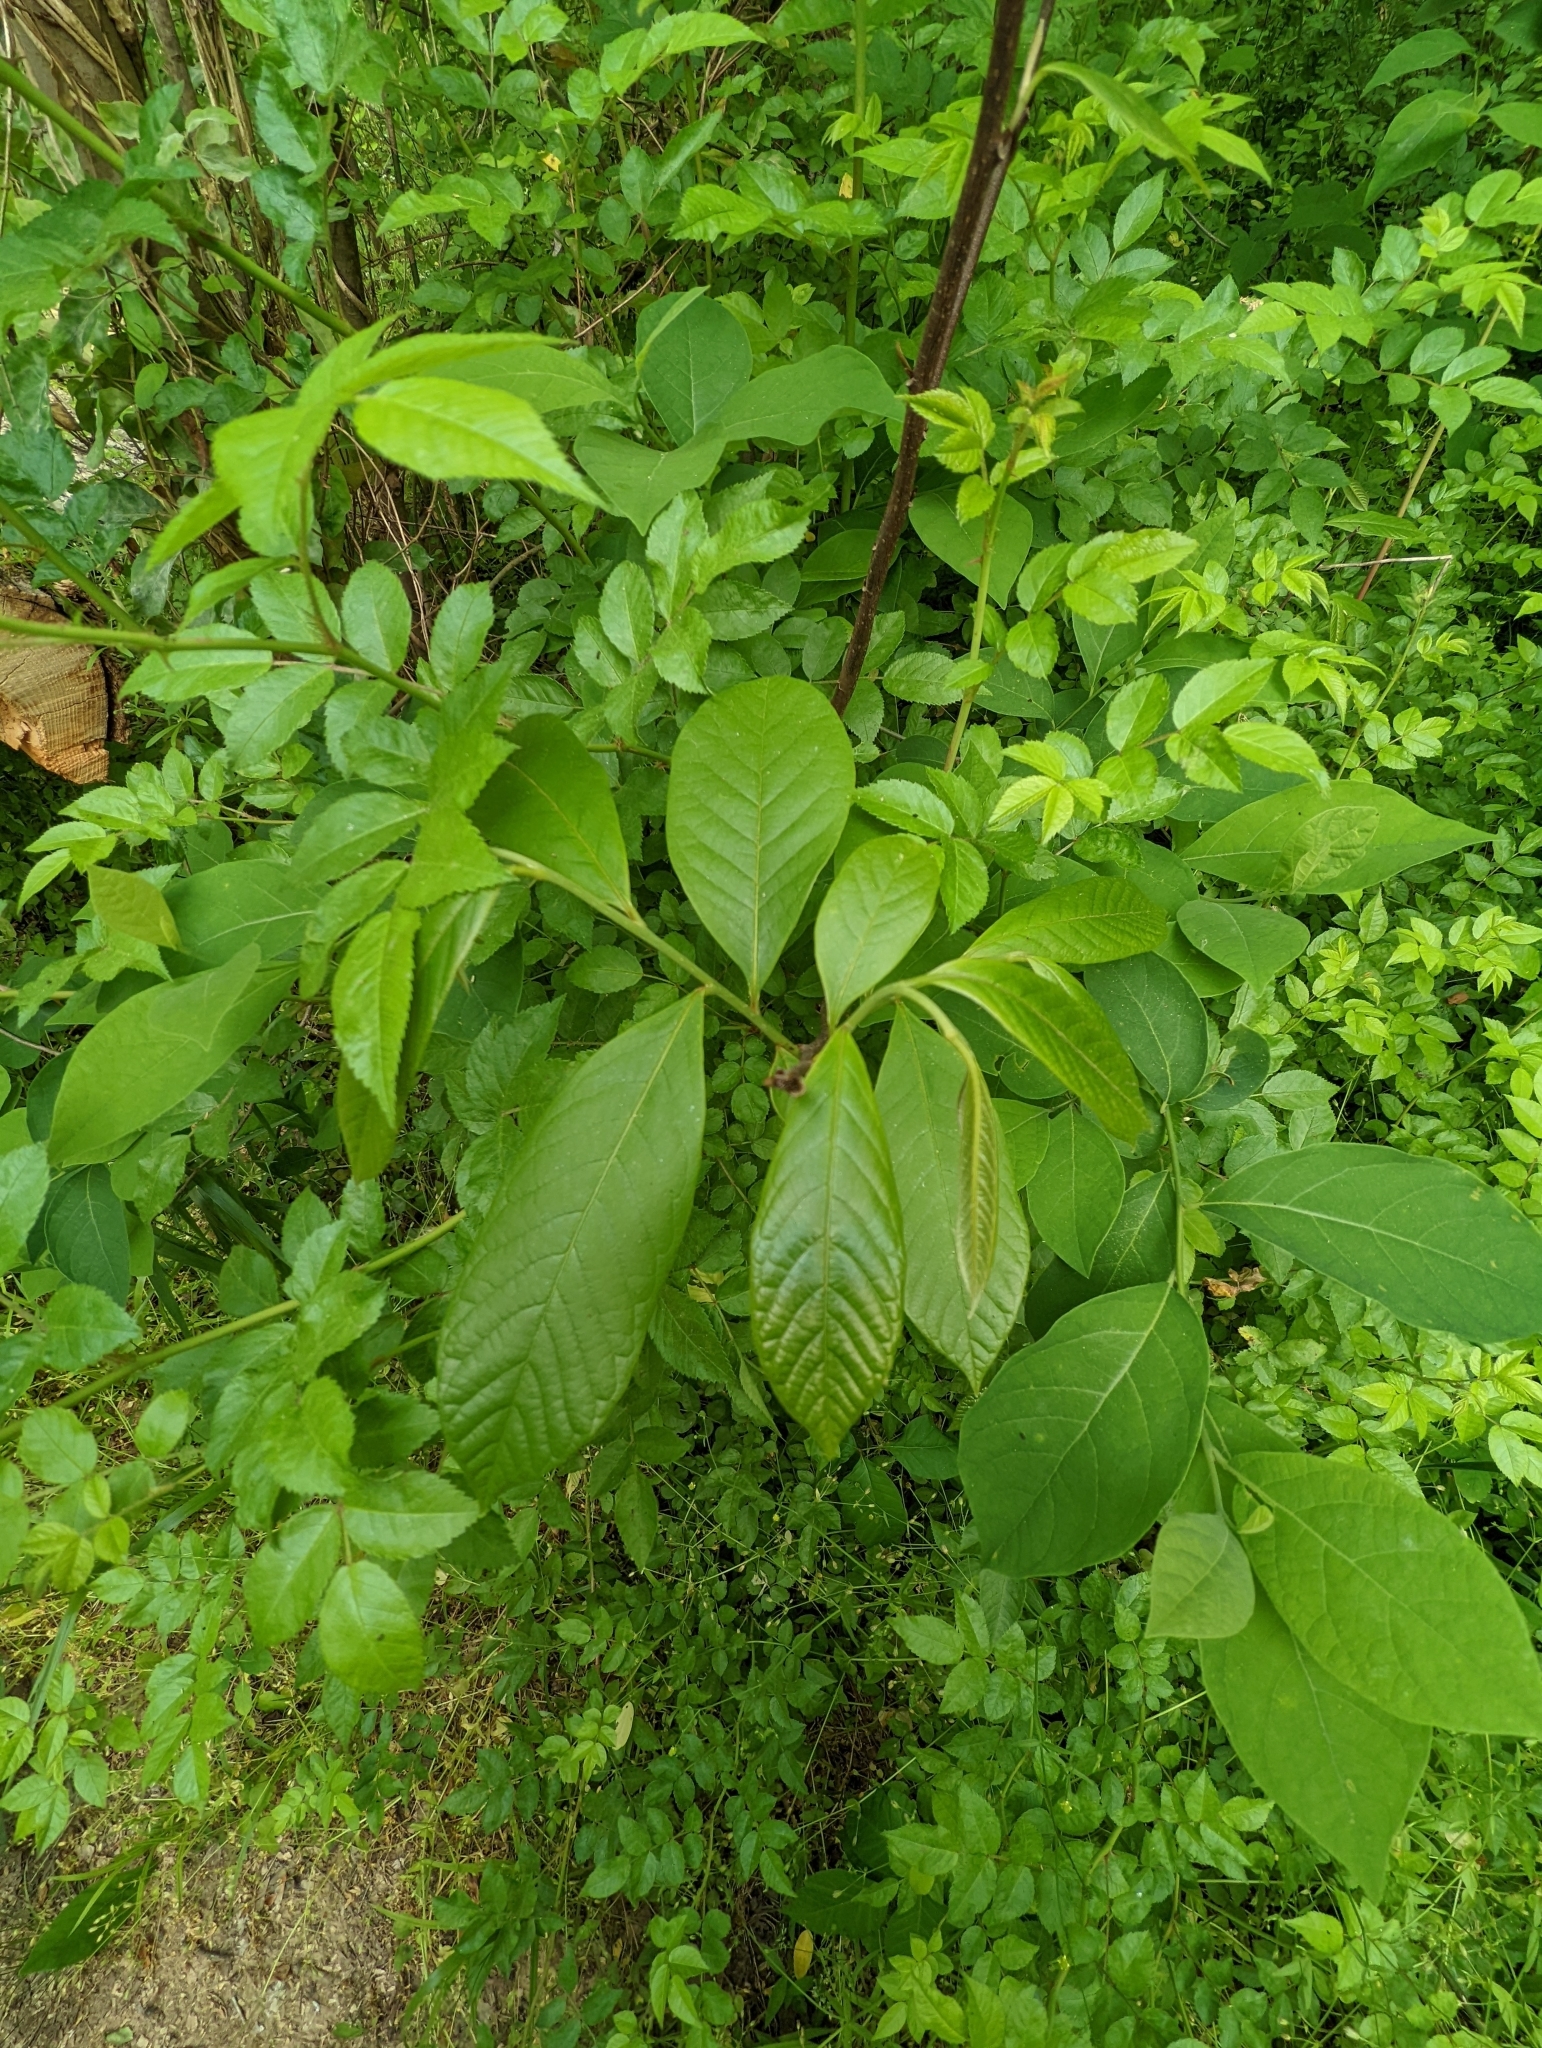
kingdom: Plantae
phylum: Tracheophyta
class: Magnoliopsida
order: Magnoliales
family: Annonaceae
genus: Asimina
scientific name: Asimina triloba
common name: Dog-banana
